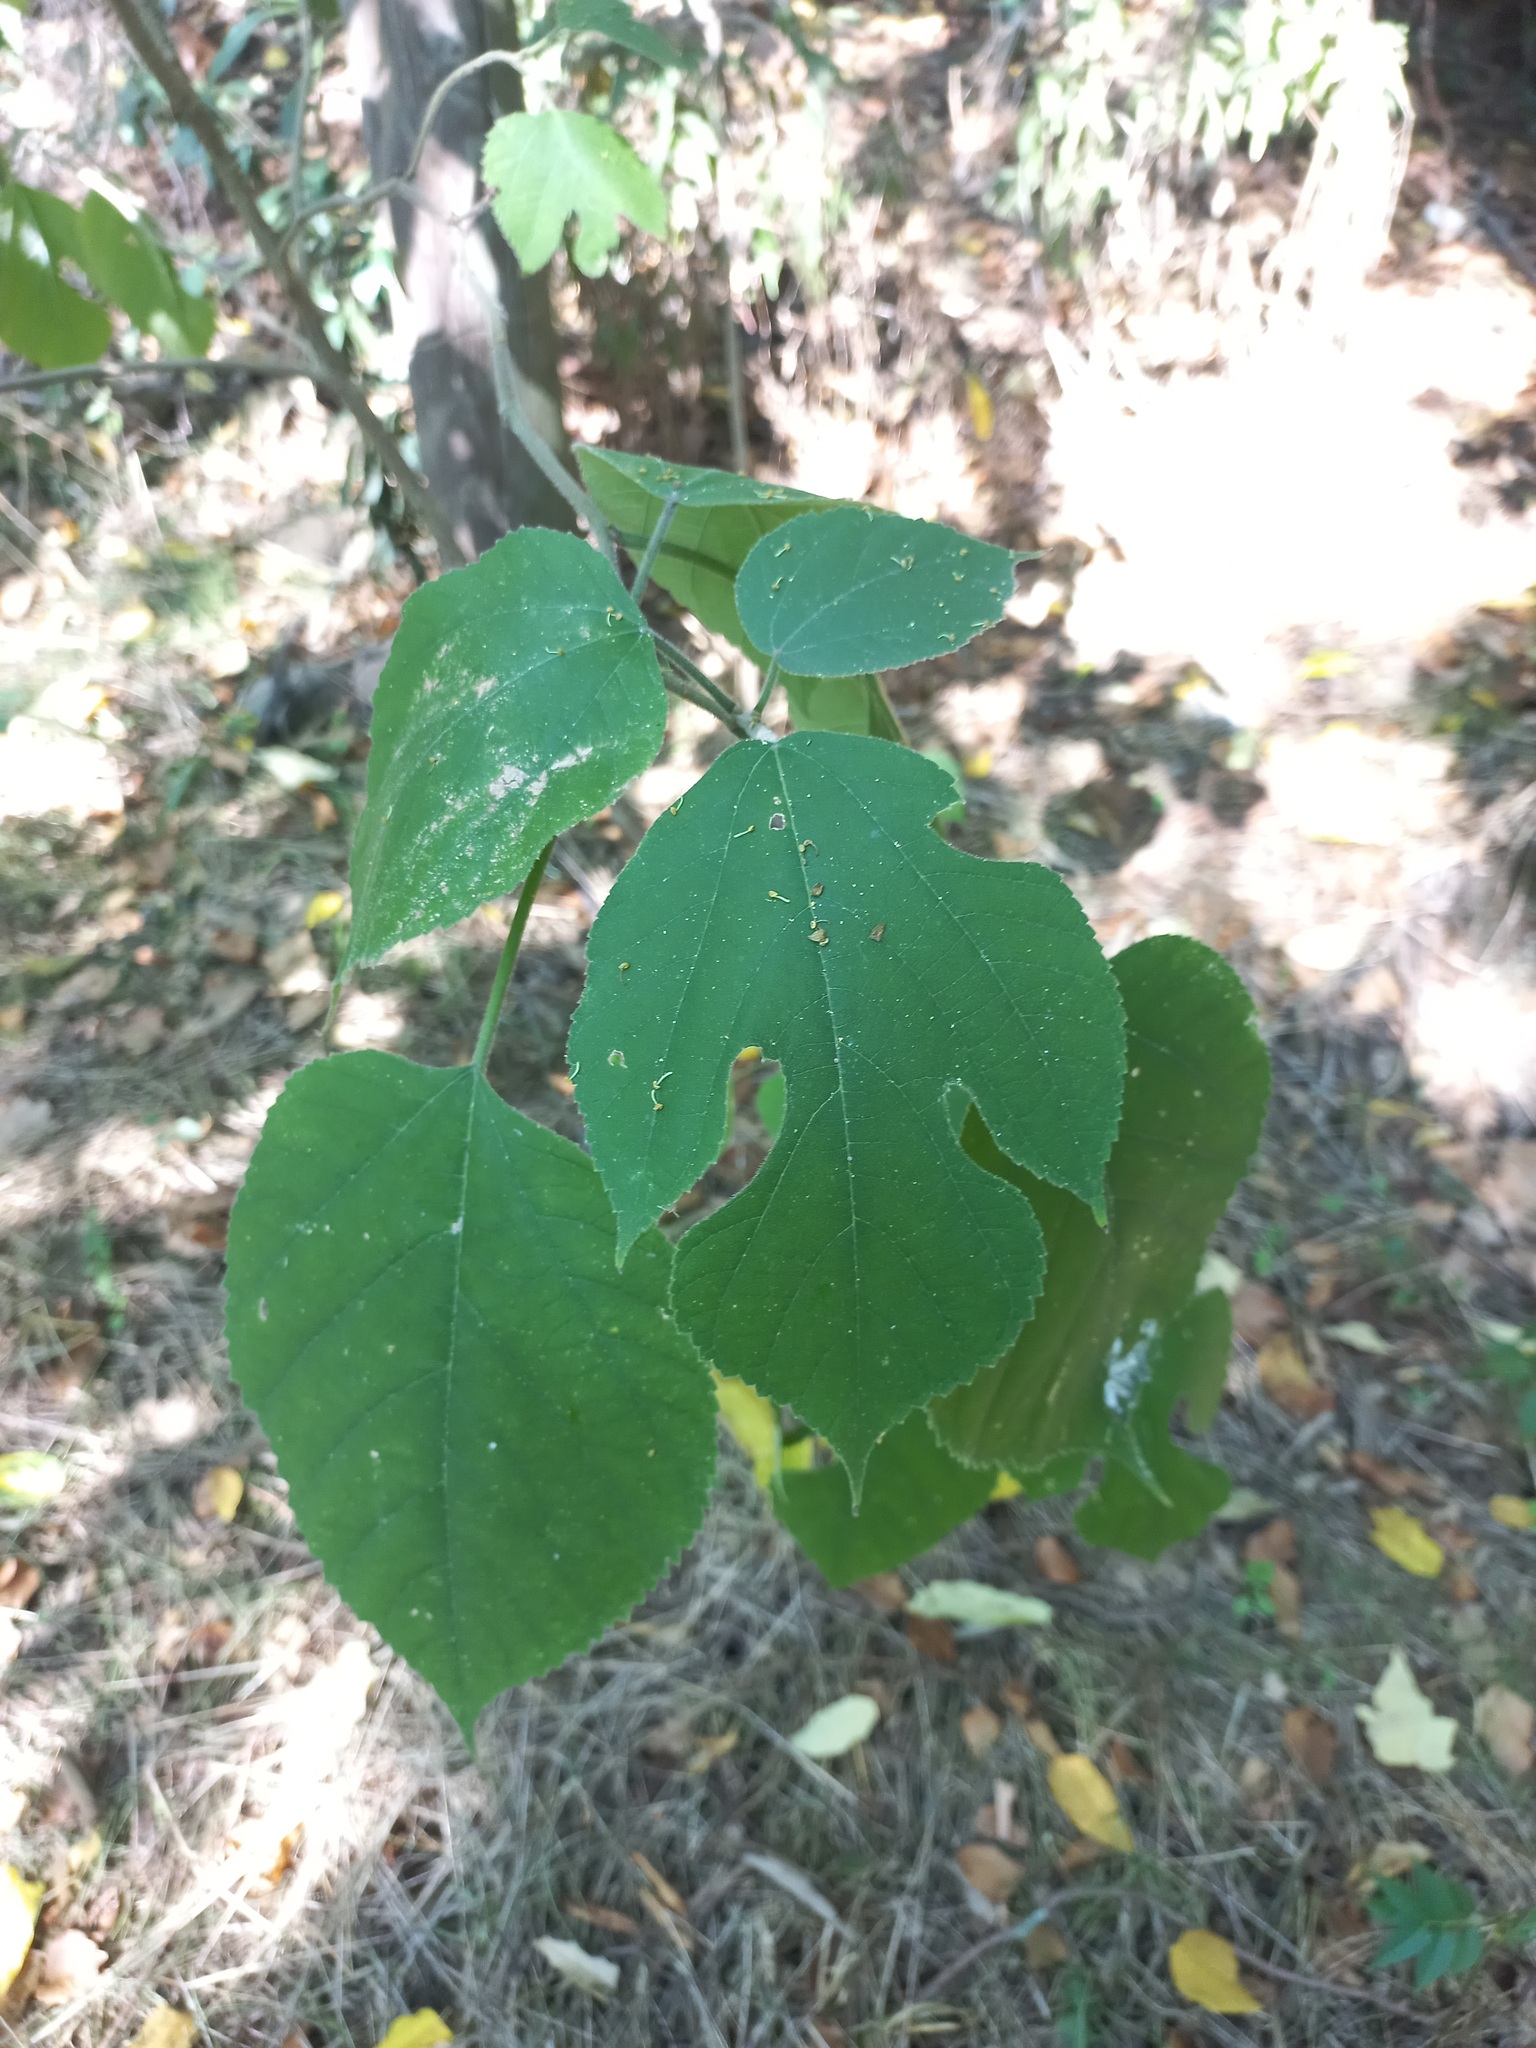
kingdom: Plantae
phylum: Tracheophyta
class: Magnoliopsida
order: Rosales
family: Moraceae
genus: Broussonetia
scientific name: Broussonetia papyrifera
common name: Paper mulberry
